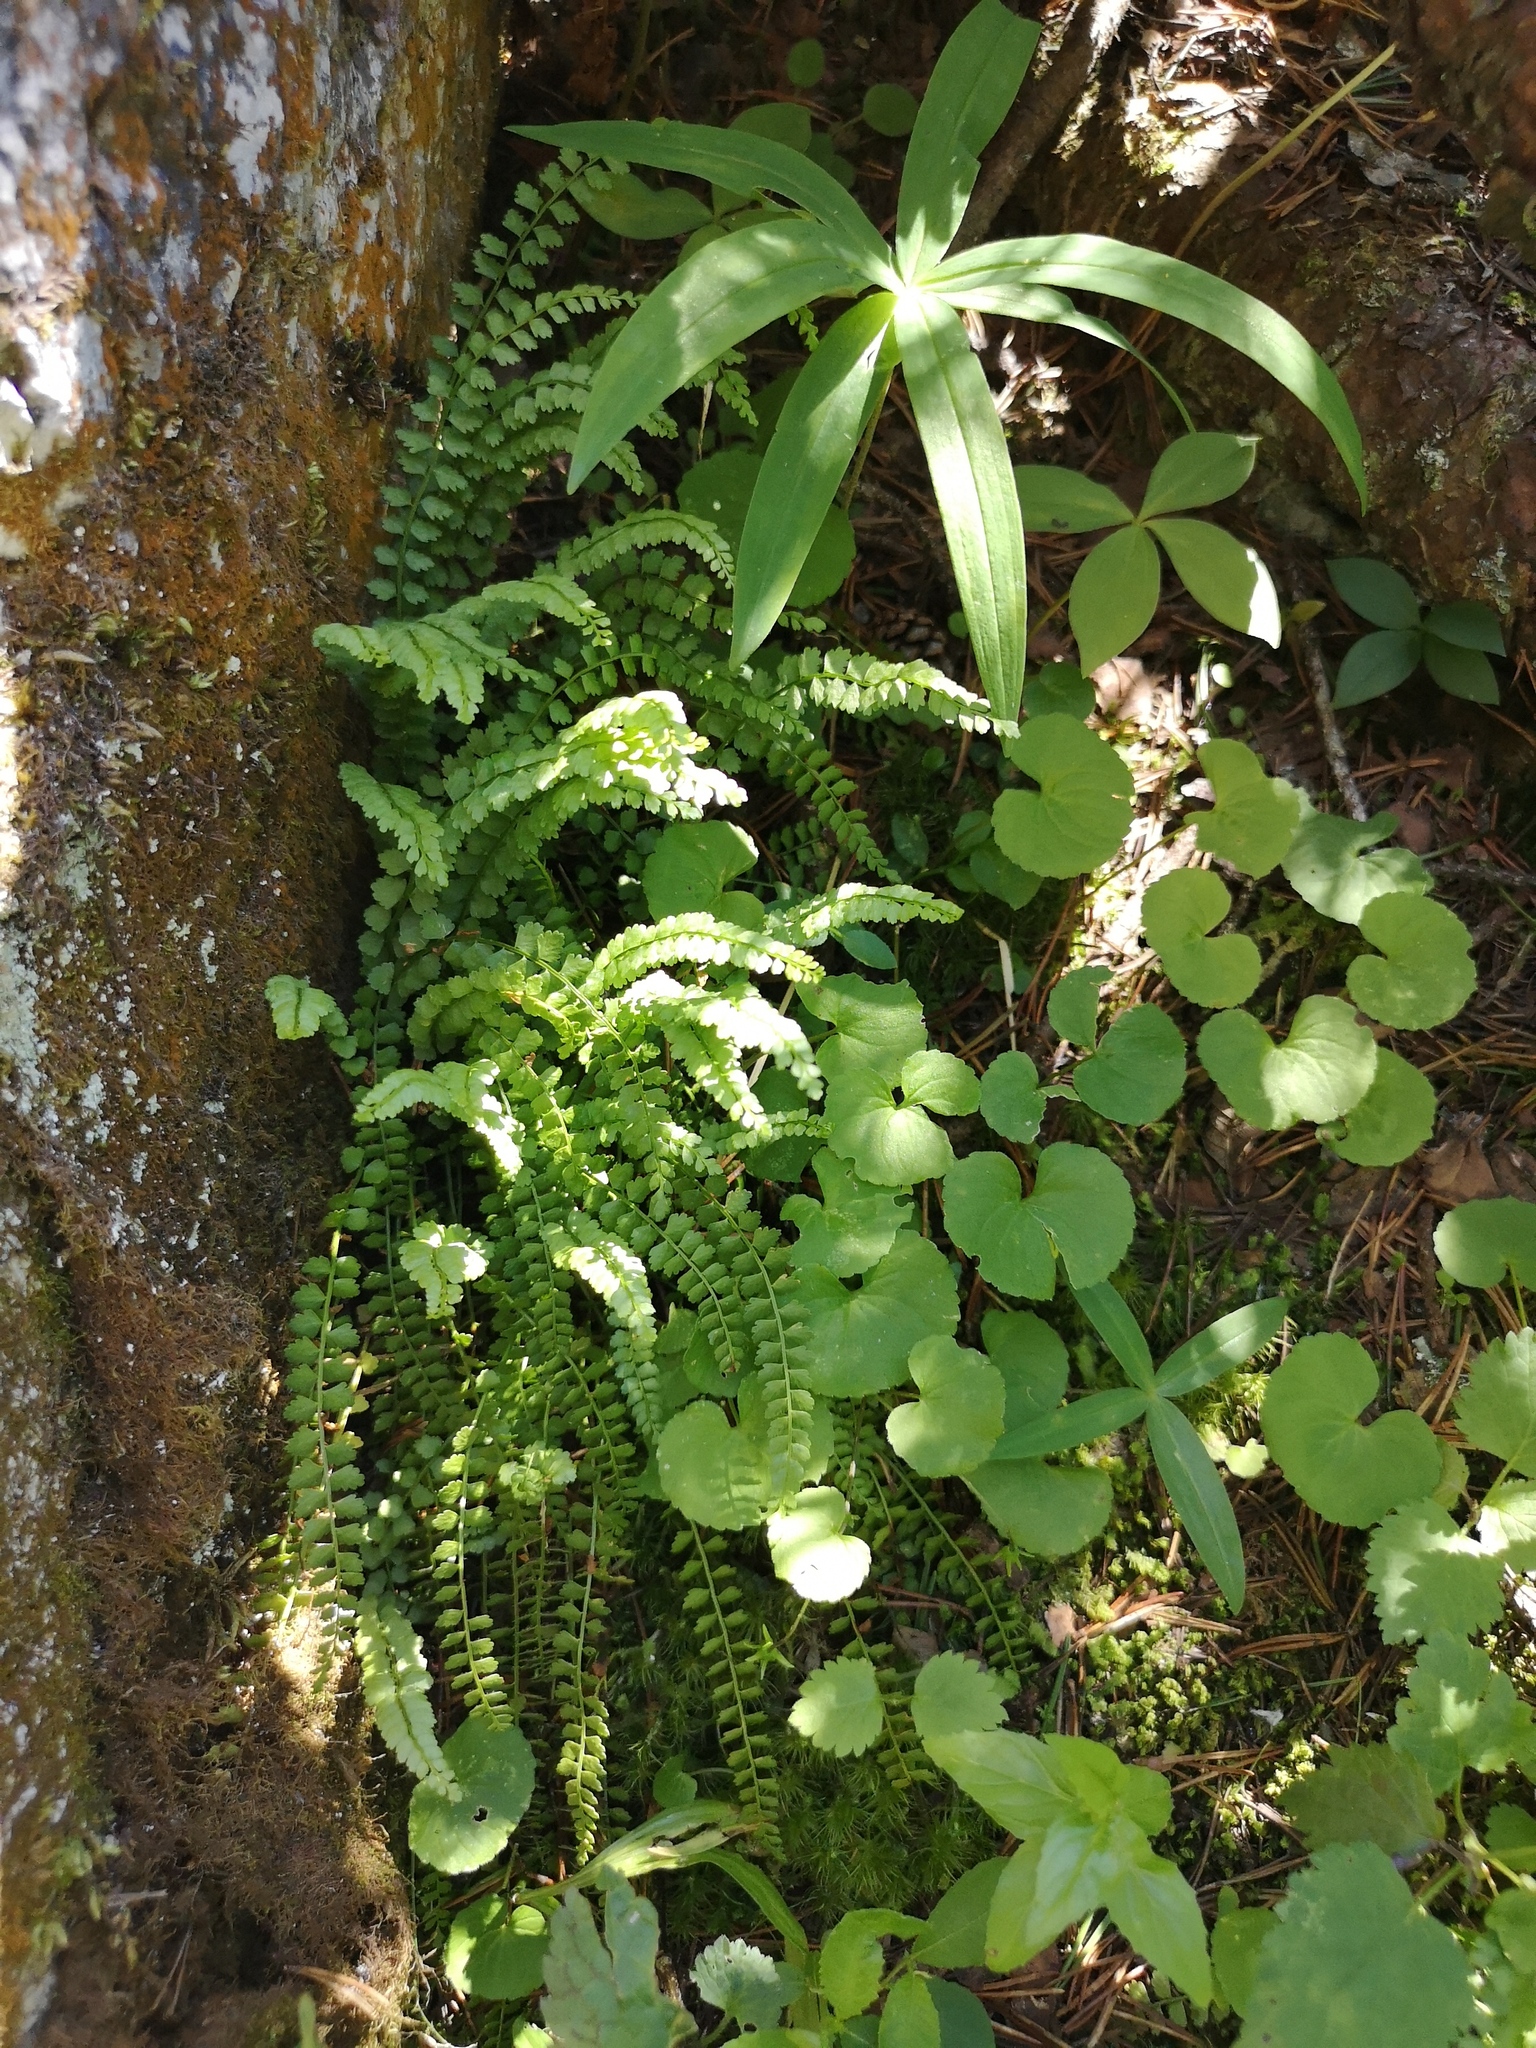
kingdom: Plantae
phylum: Tracheophyta
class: Polypodiopsida
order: Polypodiales
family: Aspleniaceae
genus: Asplenium
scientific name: Asplenium viride
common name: Green spleenwort
